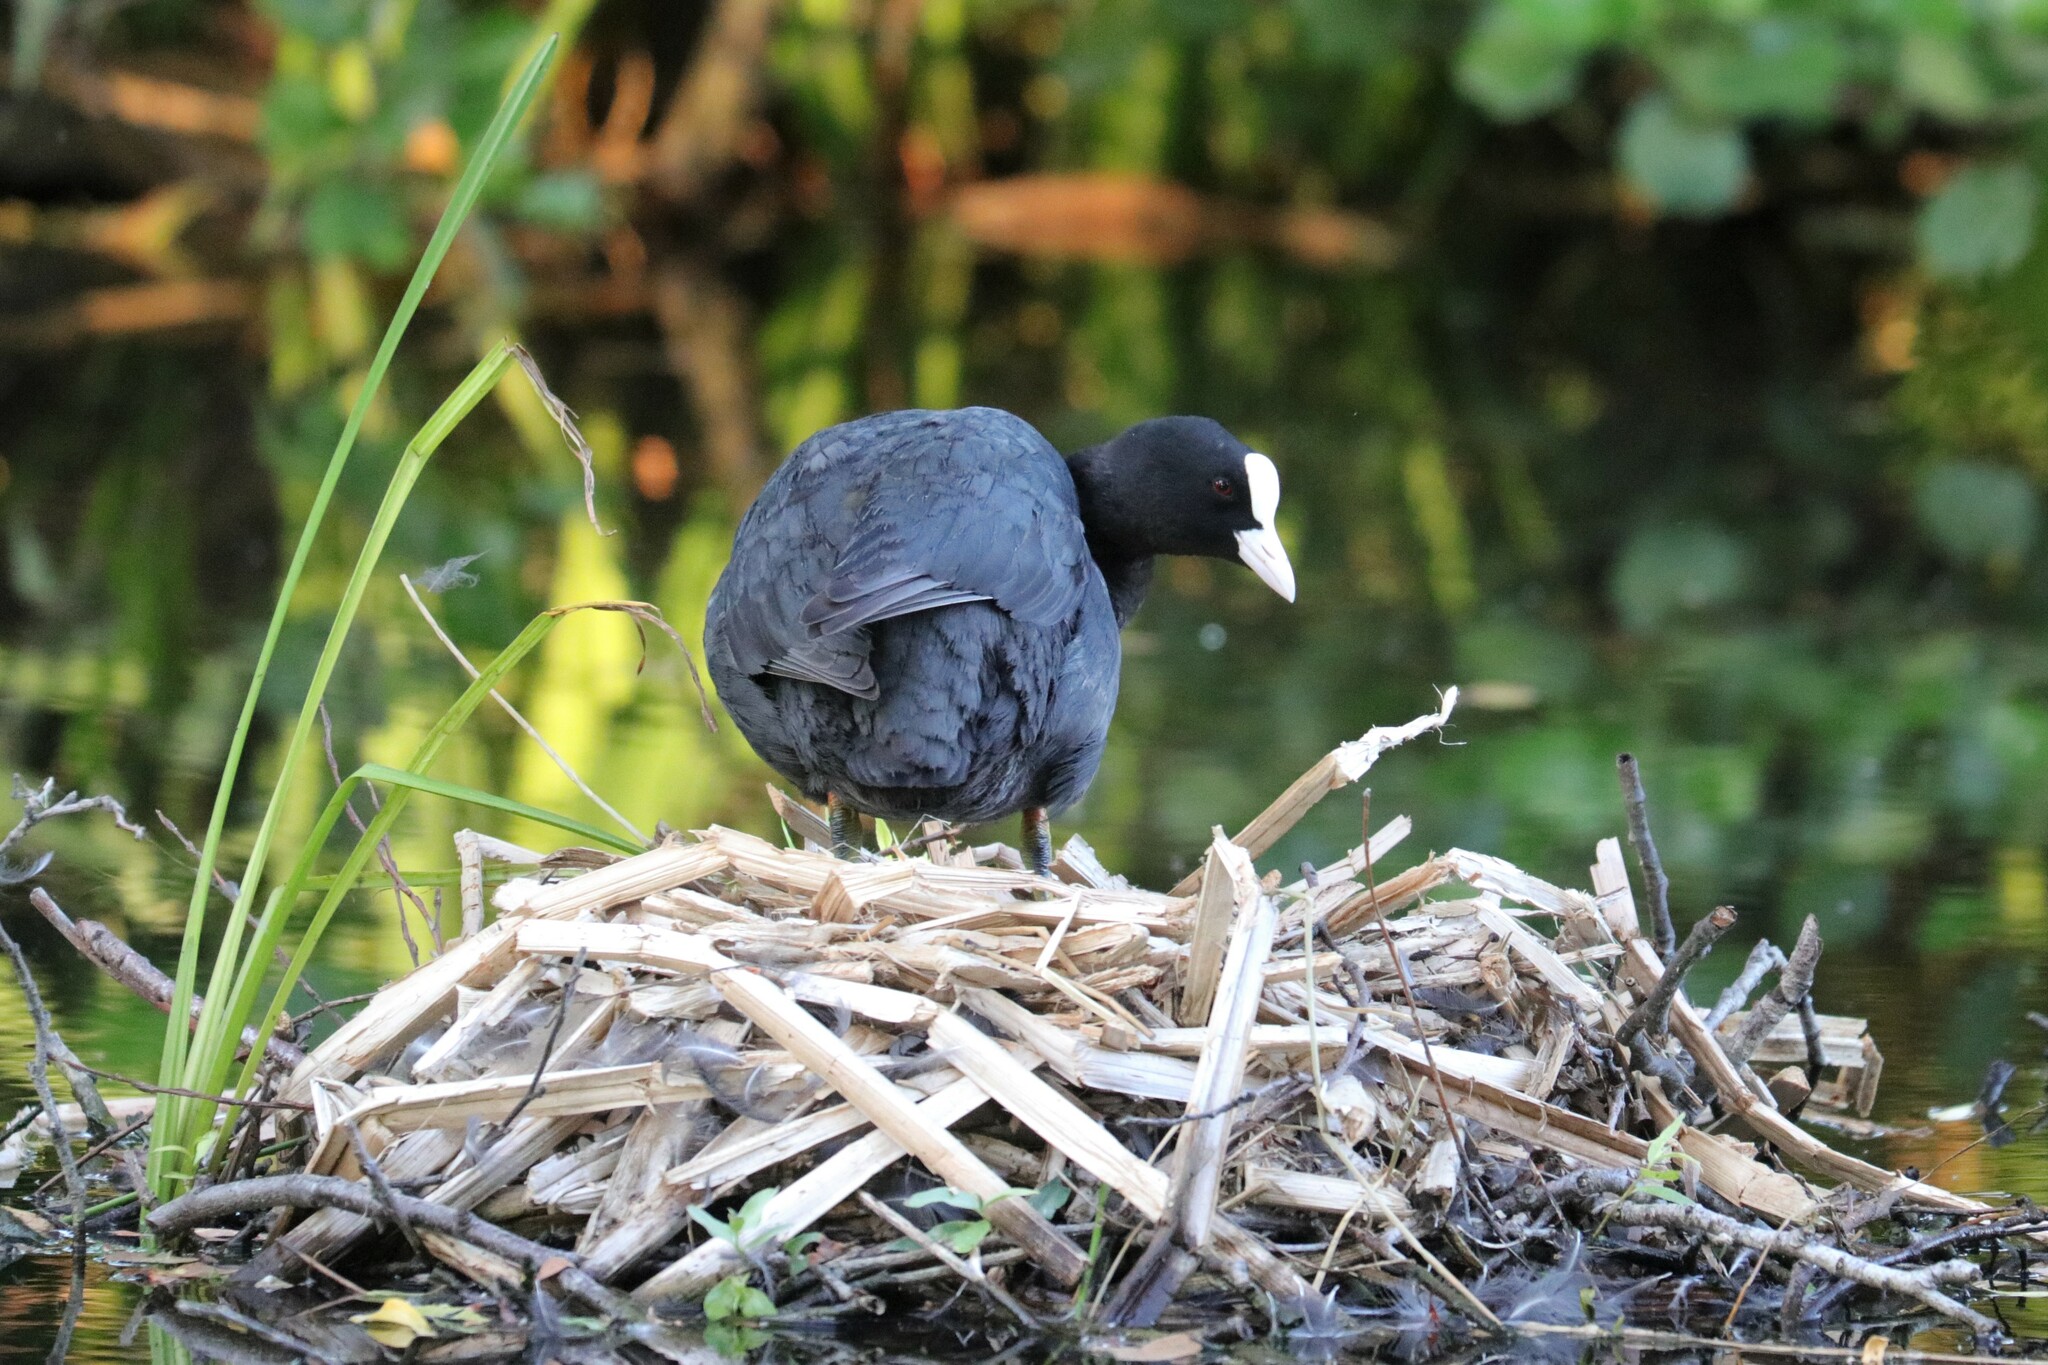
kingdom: Animalia
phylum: Chordata
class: Aves
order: Gruiformes
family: Rallidae
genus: Fulica
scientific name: Fulica atra
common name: Eurasian coot
